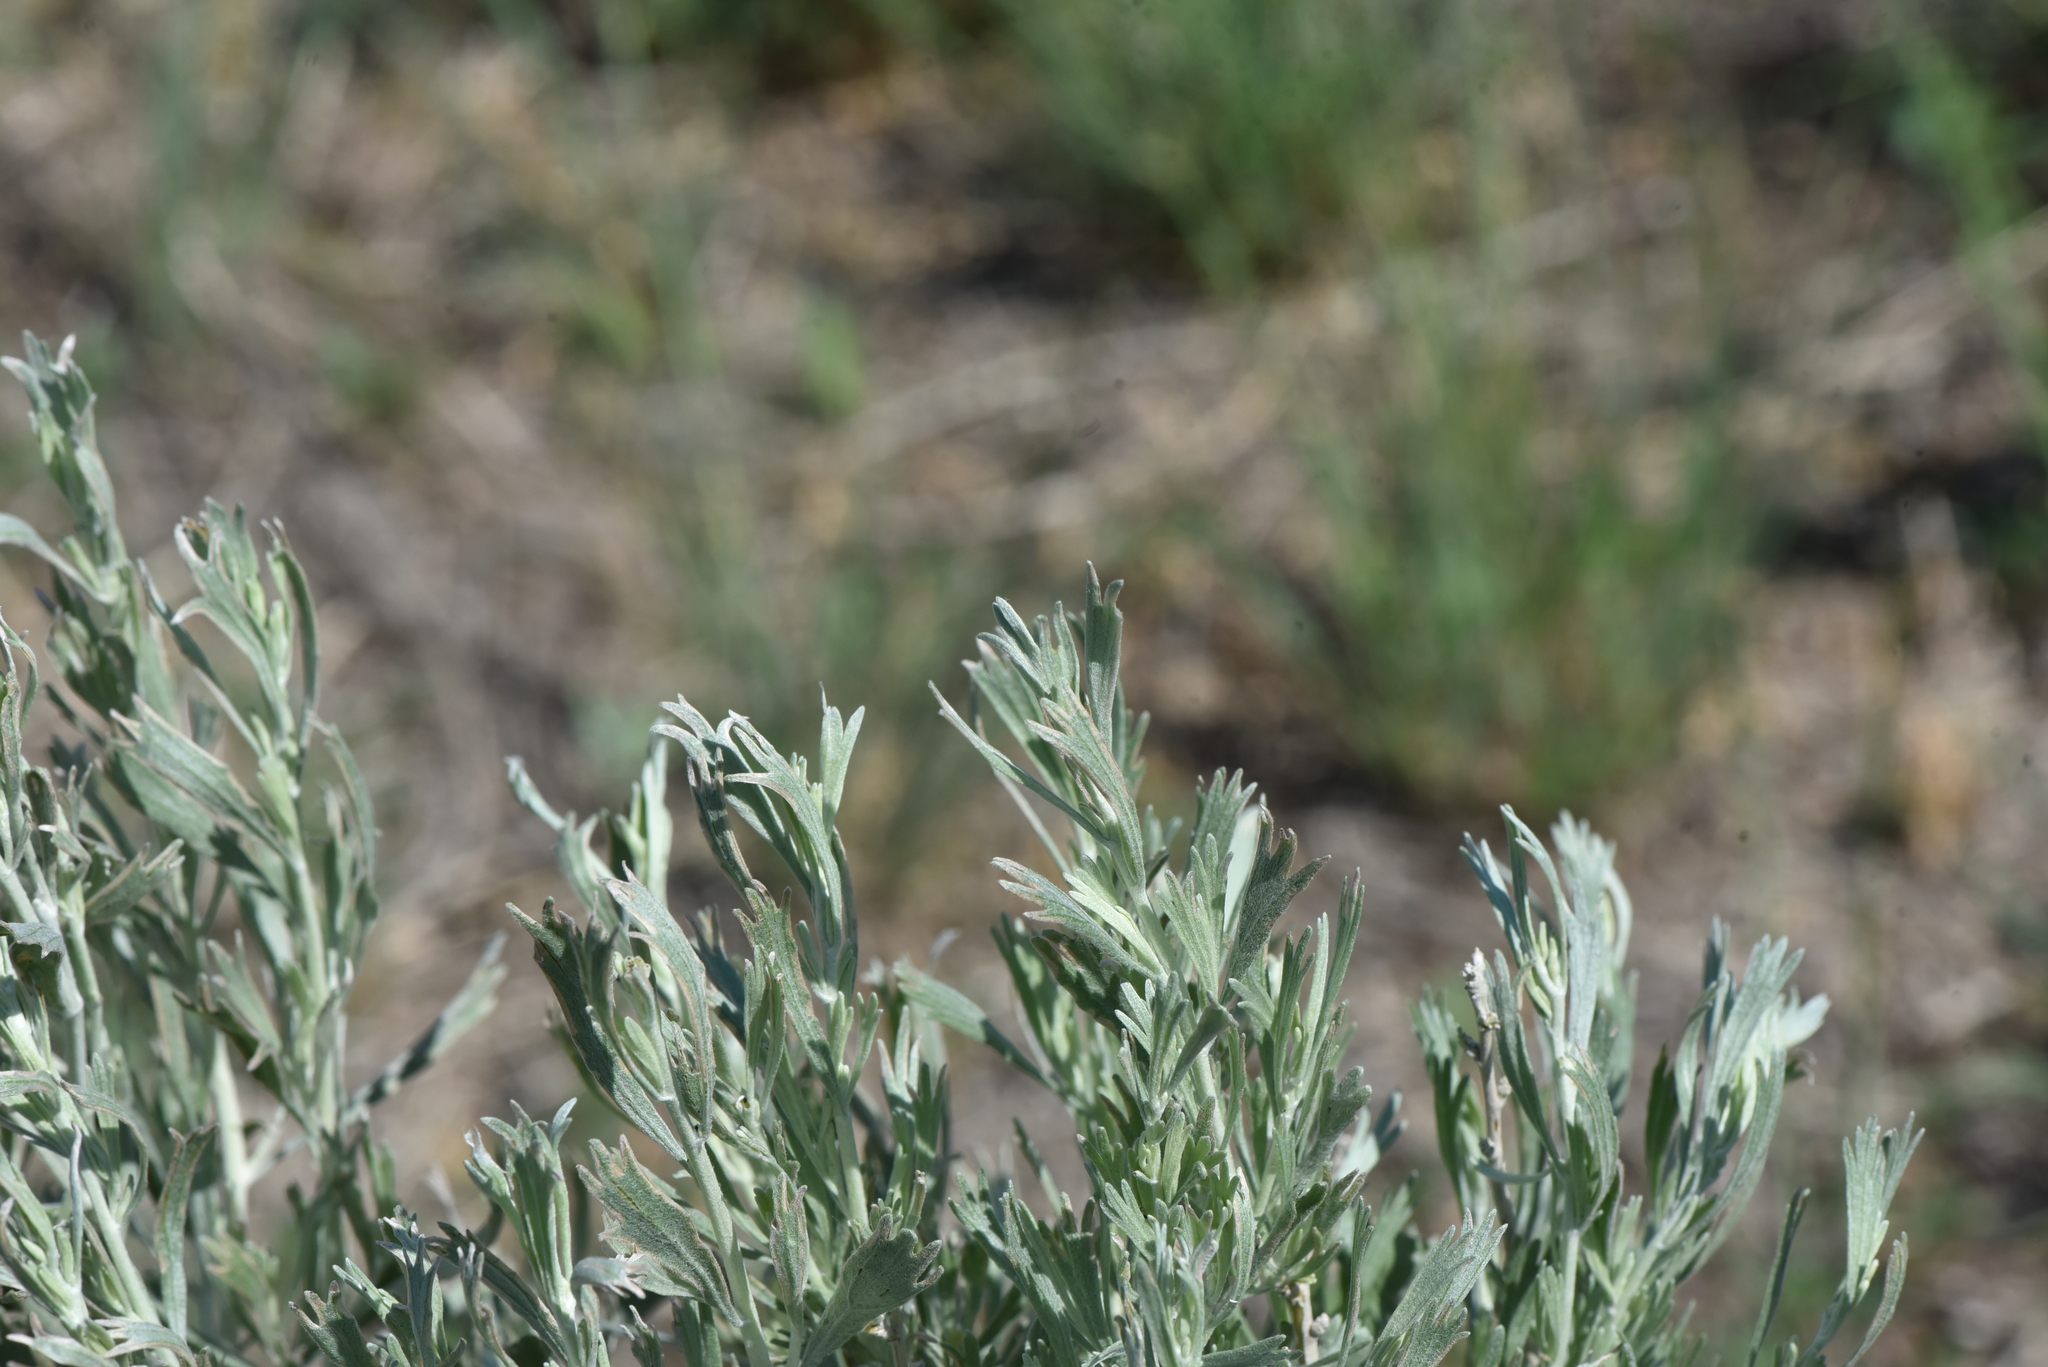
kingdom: Plantae
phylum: Tracheophyta
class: Magnoliopsida
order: Asterales
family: Asteraceae
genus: Artemisia
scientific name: Artemisia tridentata
